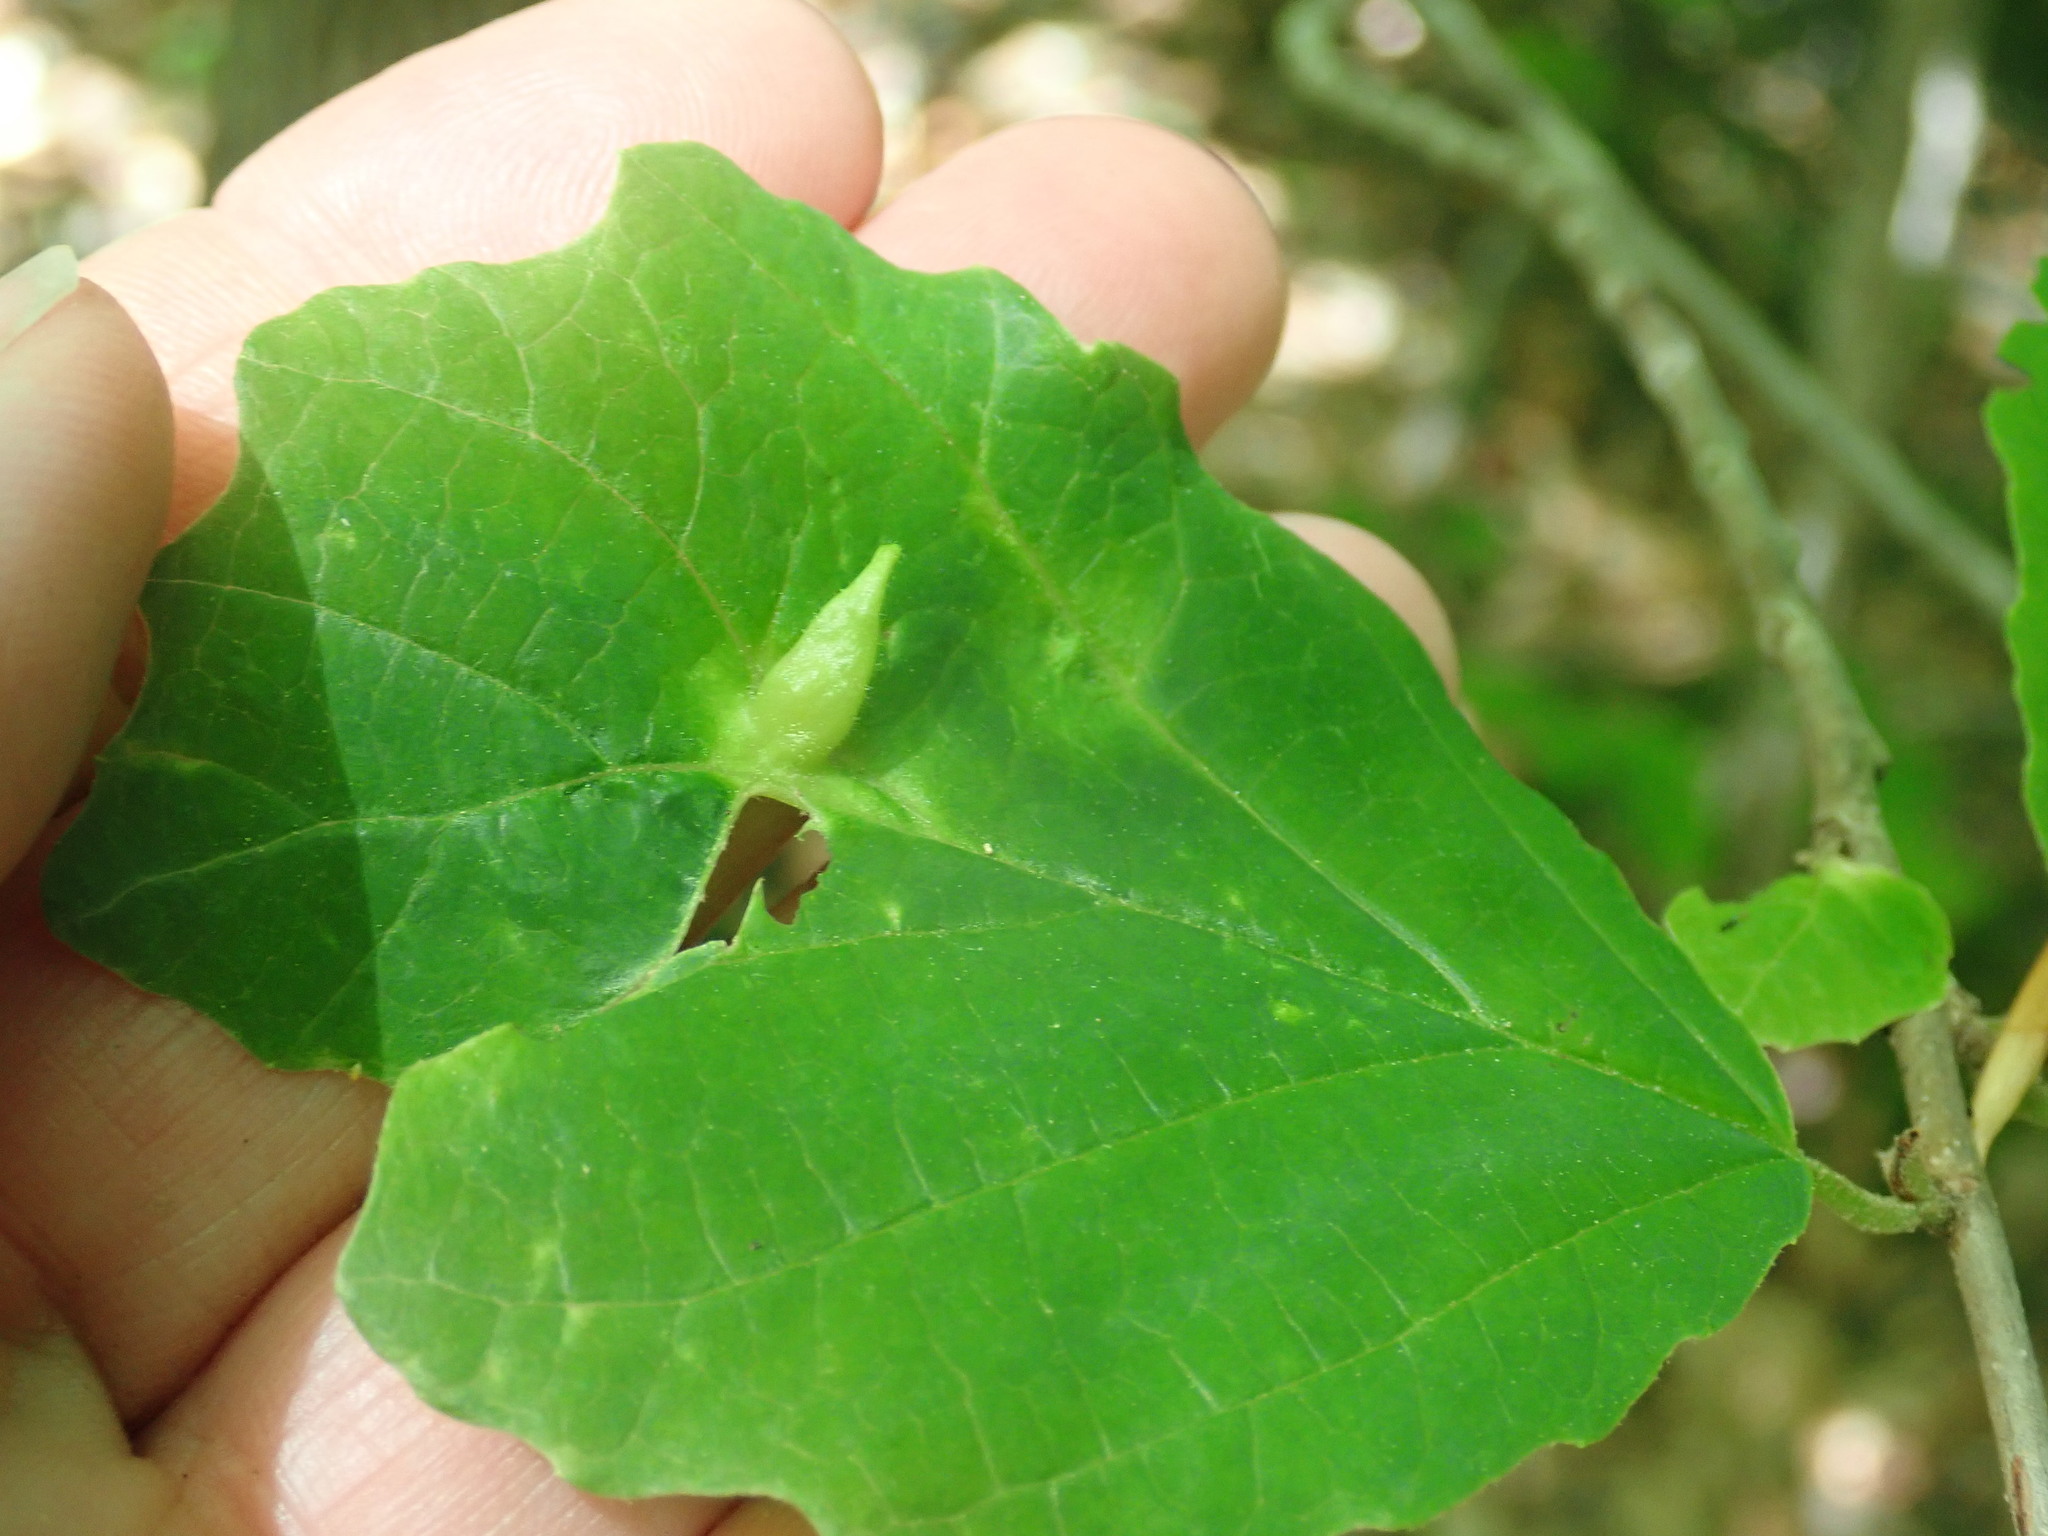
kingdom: Animalia
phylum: Arthropoda
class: Insecta
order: Hemiptera
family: Aphididae
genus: Hormaphis
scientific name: Hormaphis hamamelidis
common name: Witch-hazel cone gall aphid
